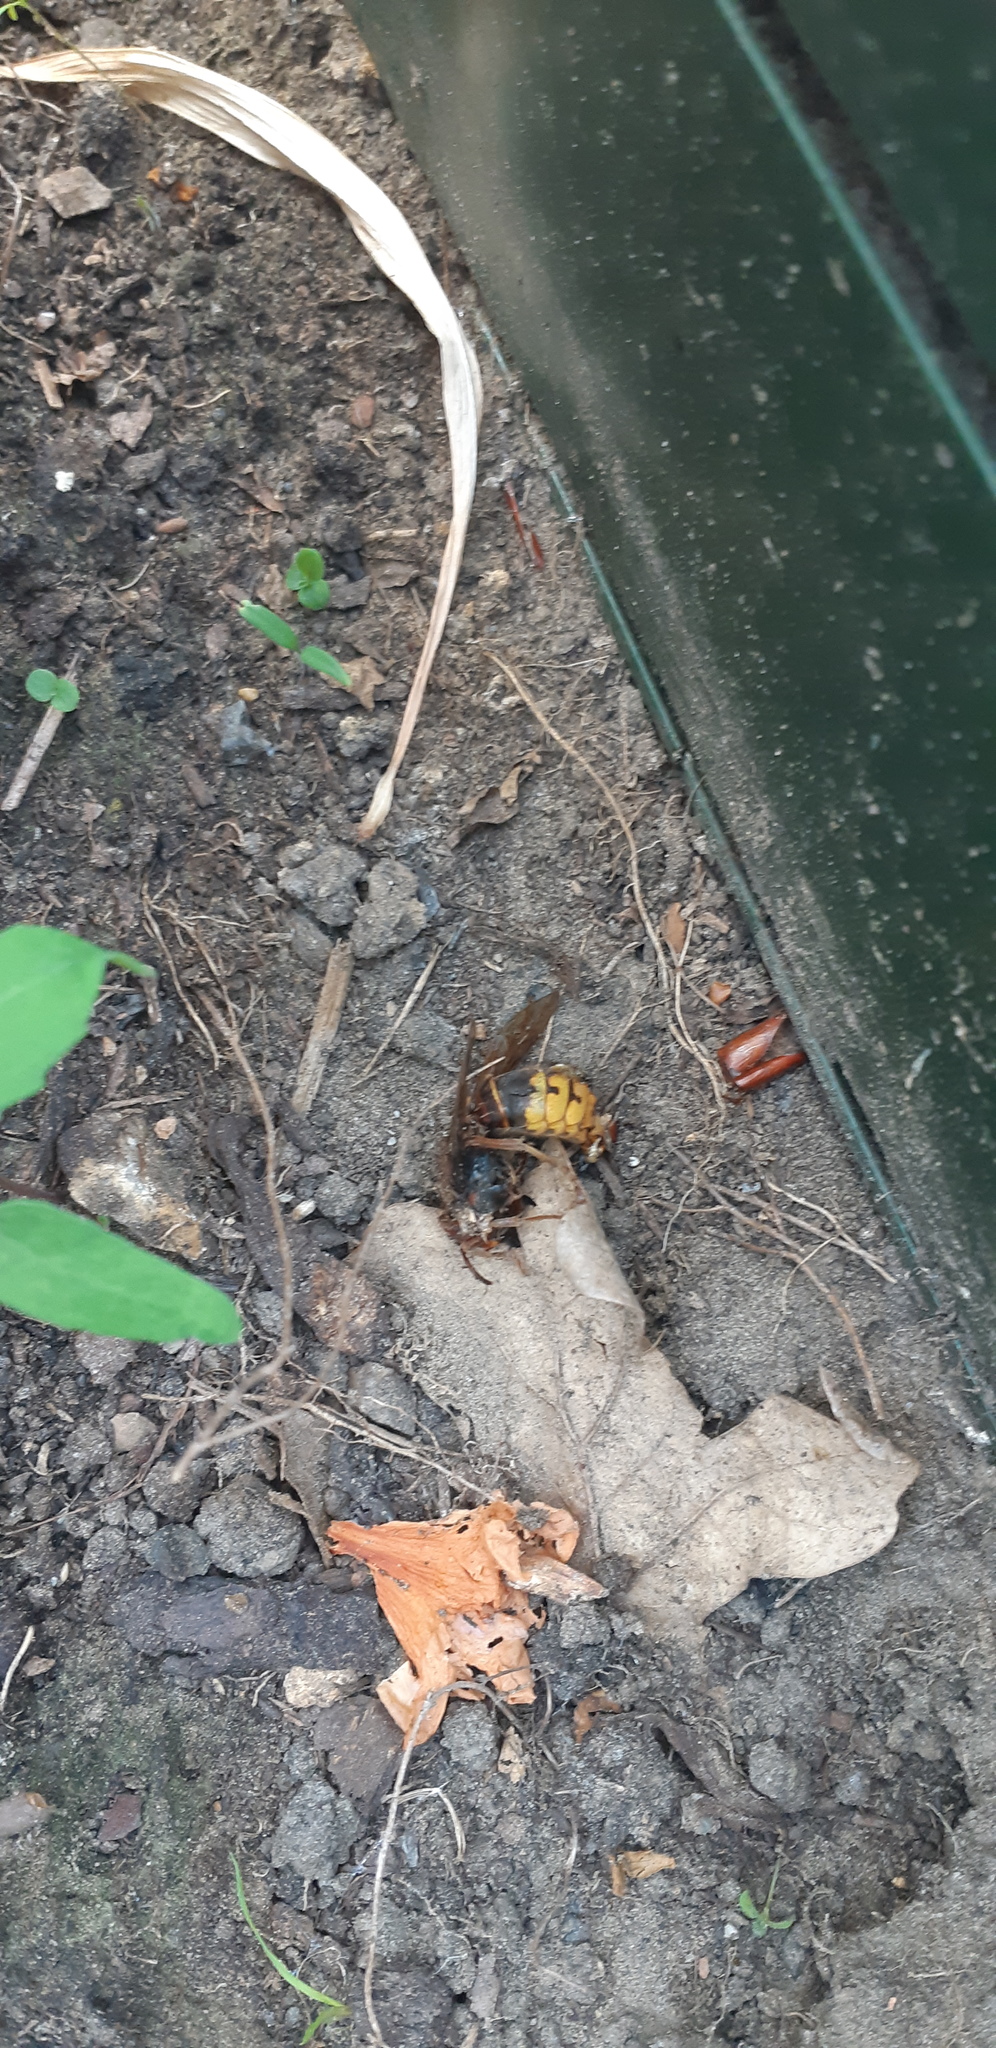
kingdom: Animalia
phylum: Arthropoda
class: Insecta
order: Hymenoptera
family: Vespidae
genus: Vespa
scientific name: Vespa crabro
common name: Hornet
